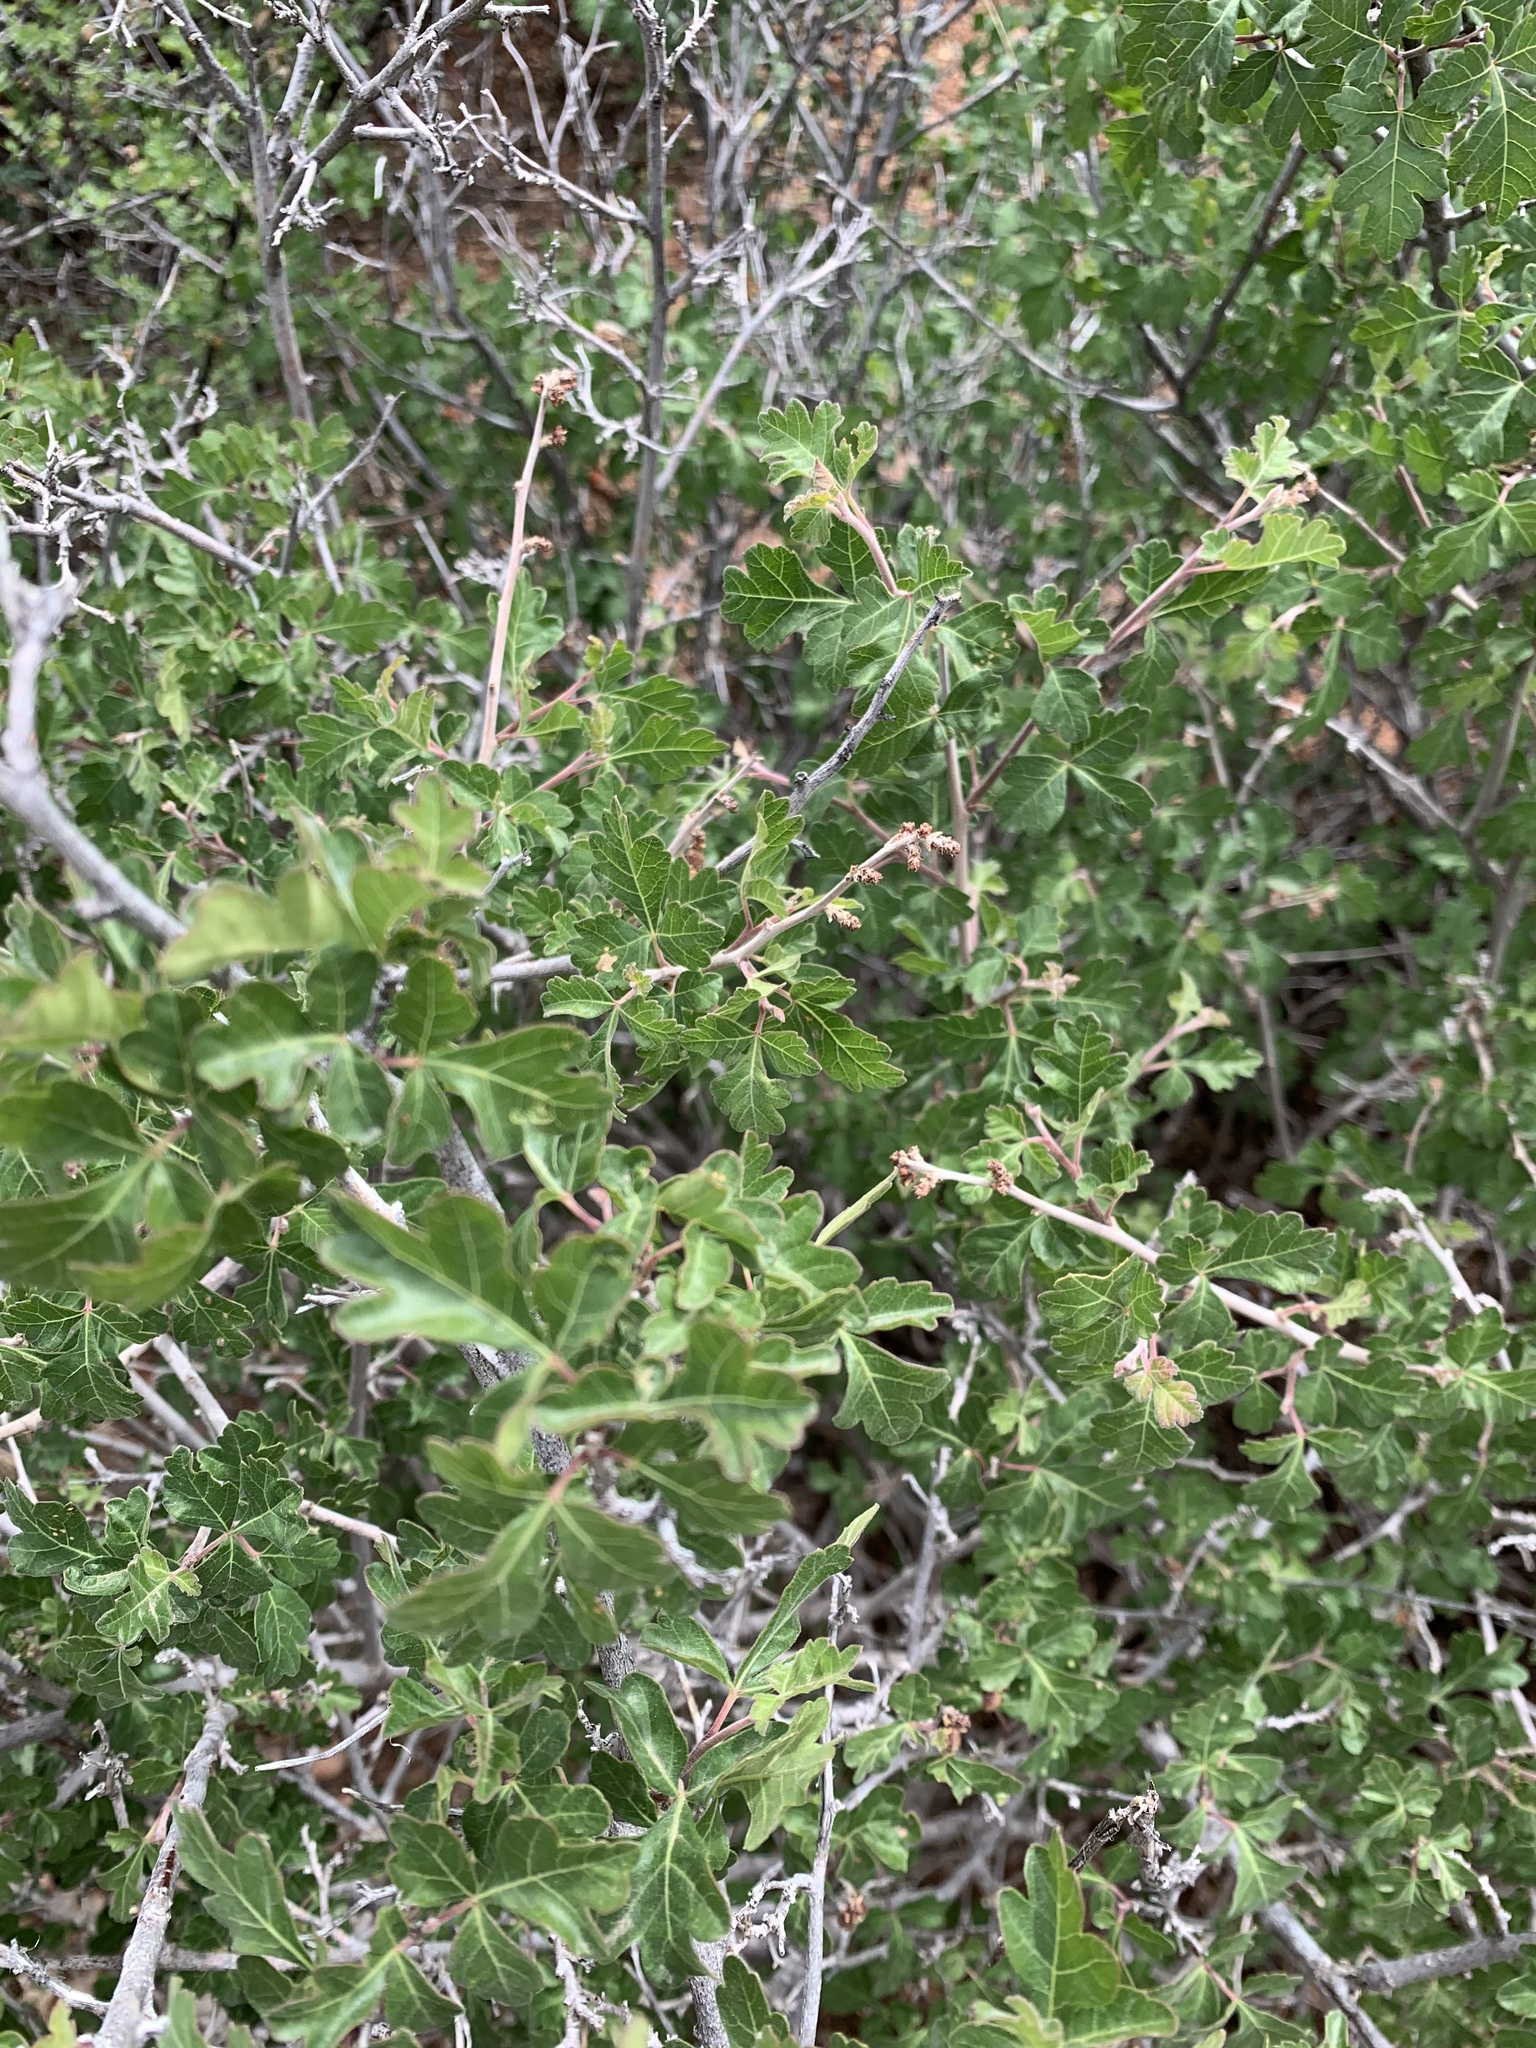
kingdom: Plantae
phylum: Tracheophyta
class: Magnoliopsida
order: Sapindales
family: Anacardiaceae
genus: Rhus
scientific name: Rhus aromatica
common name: Aromatic sumac
